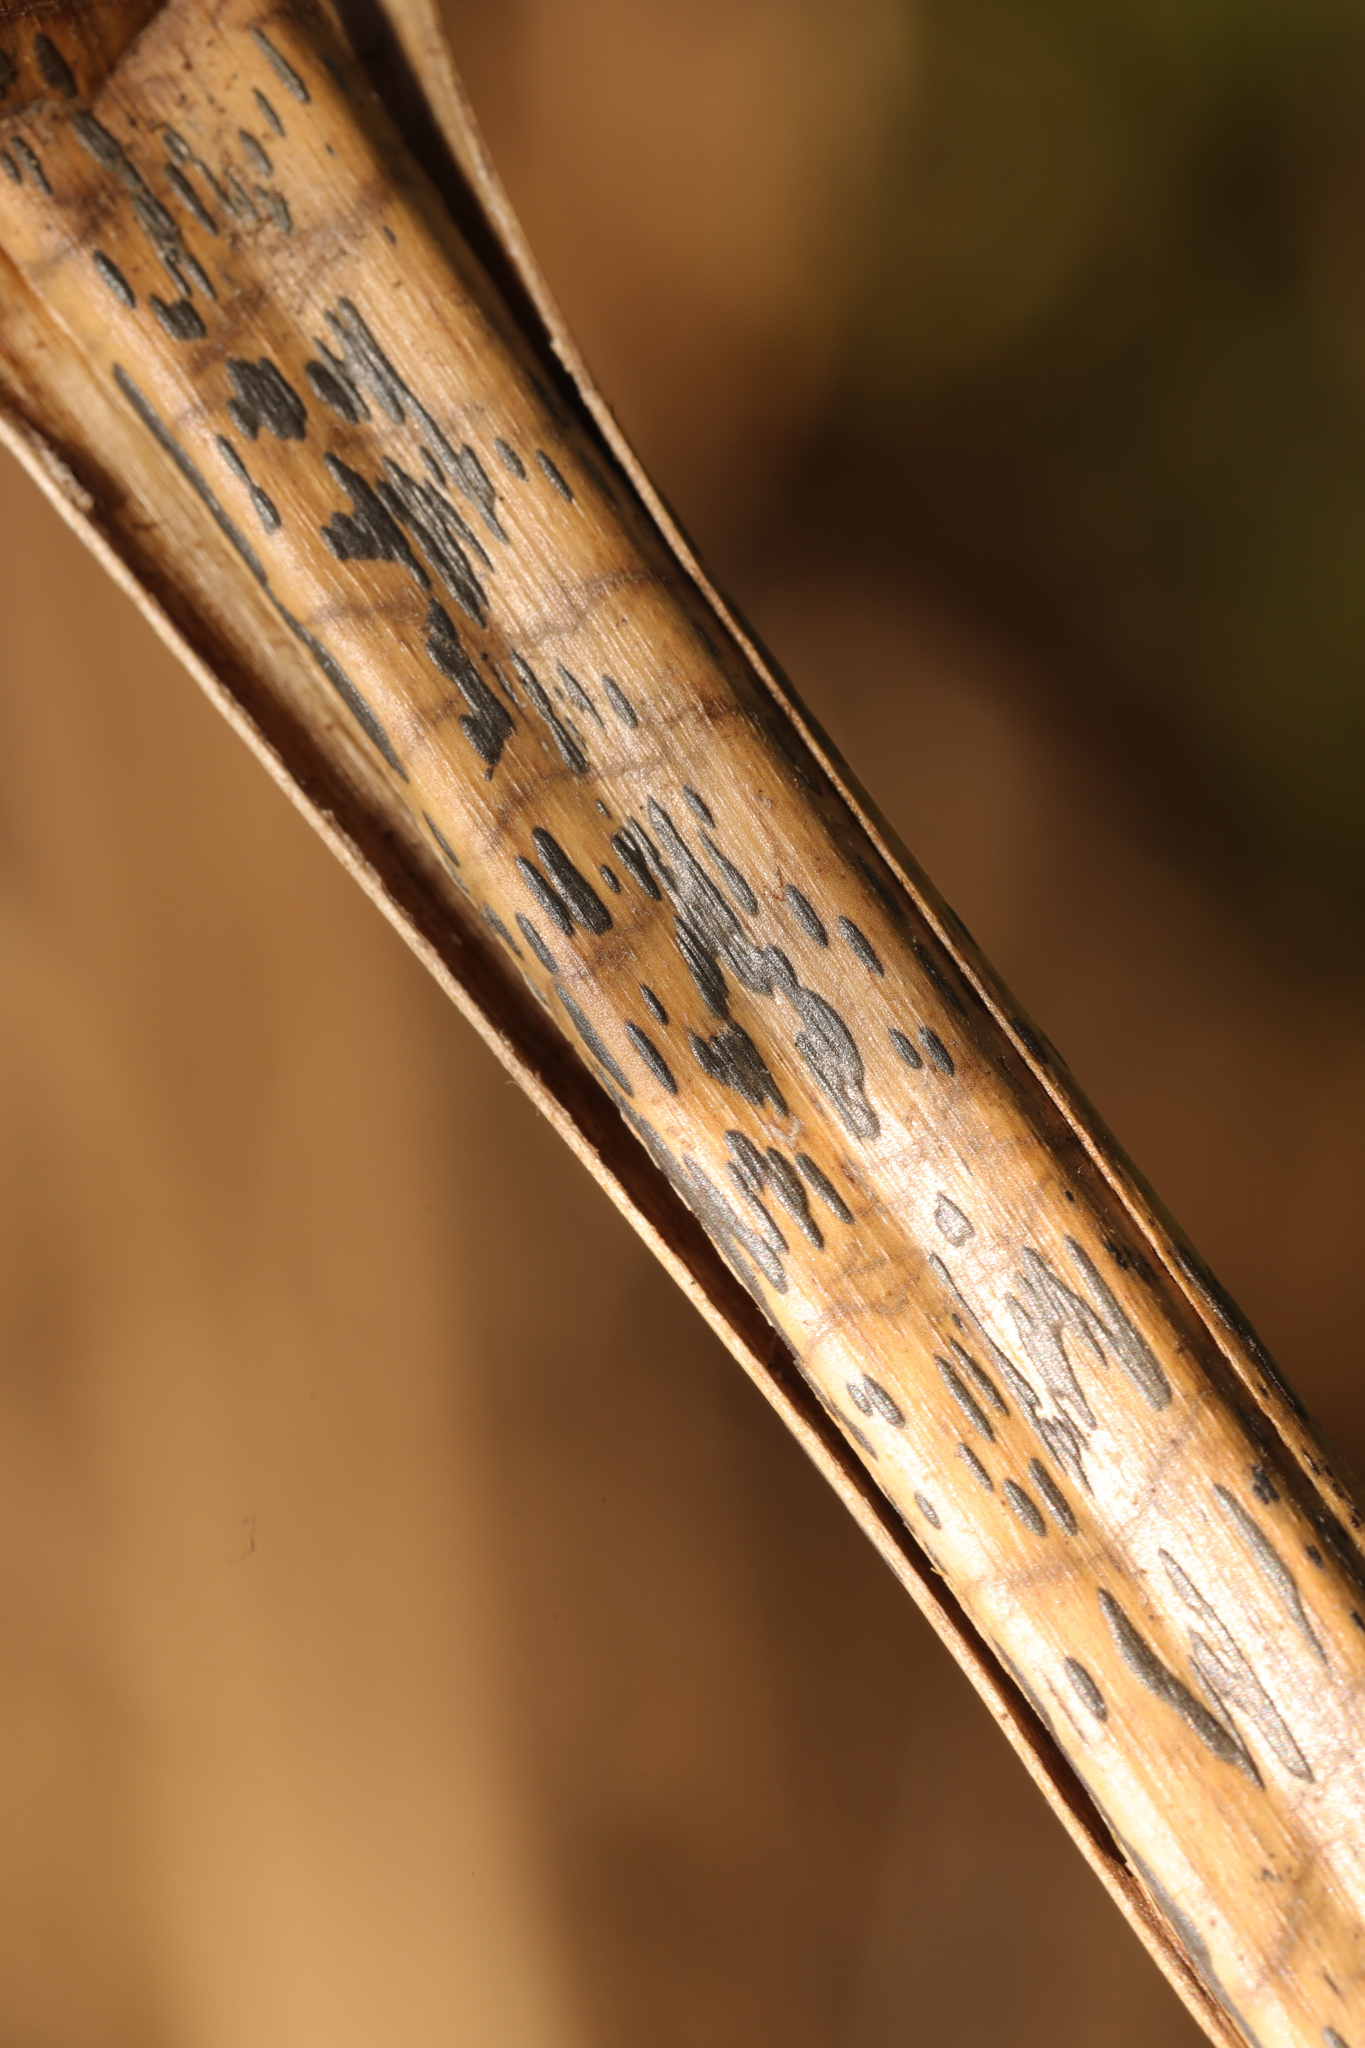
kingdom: Fungi
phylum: Ascomycota
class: Dothideomycetes
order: Pleosporales
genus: Rhopographus
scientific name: Rhopographus filicinus
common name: Bracken map
